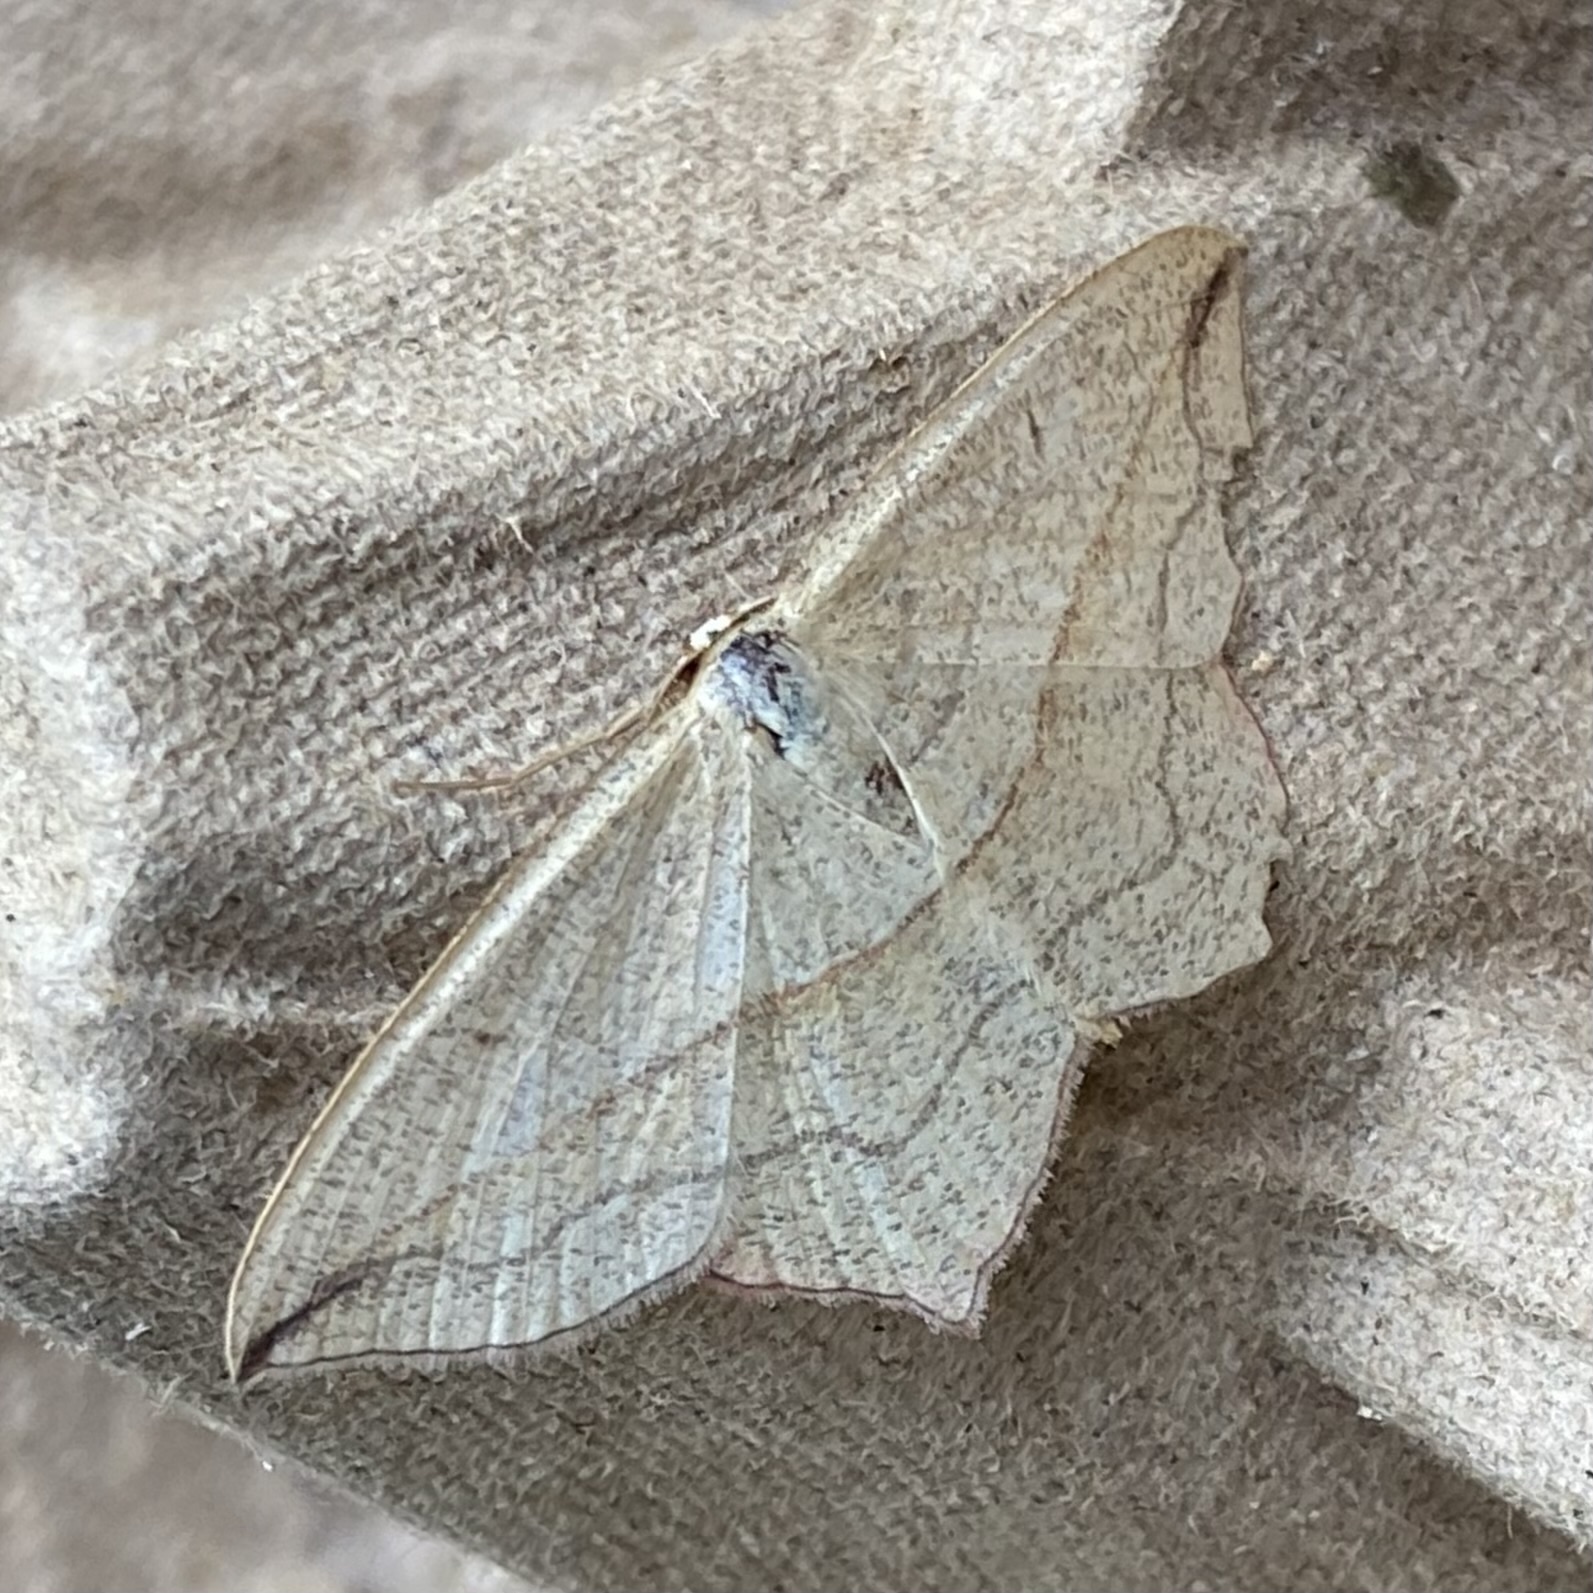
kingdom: Animalia
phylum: Arthropoda
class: Insecta
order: Lepidoptera
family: Geometridae
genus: Timandra
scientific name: Timandra comae
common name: Blood-vein
